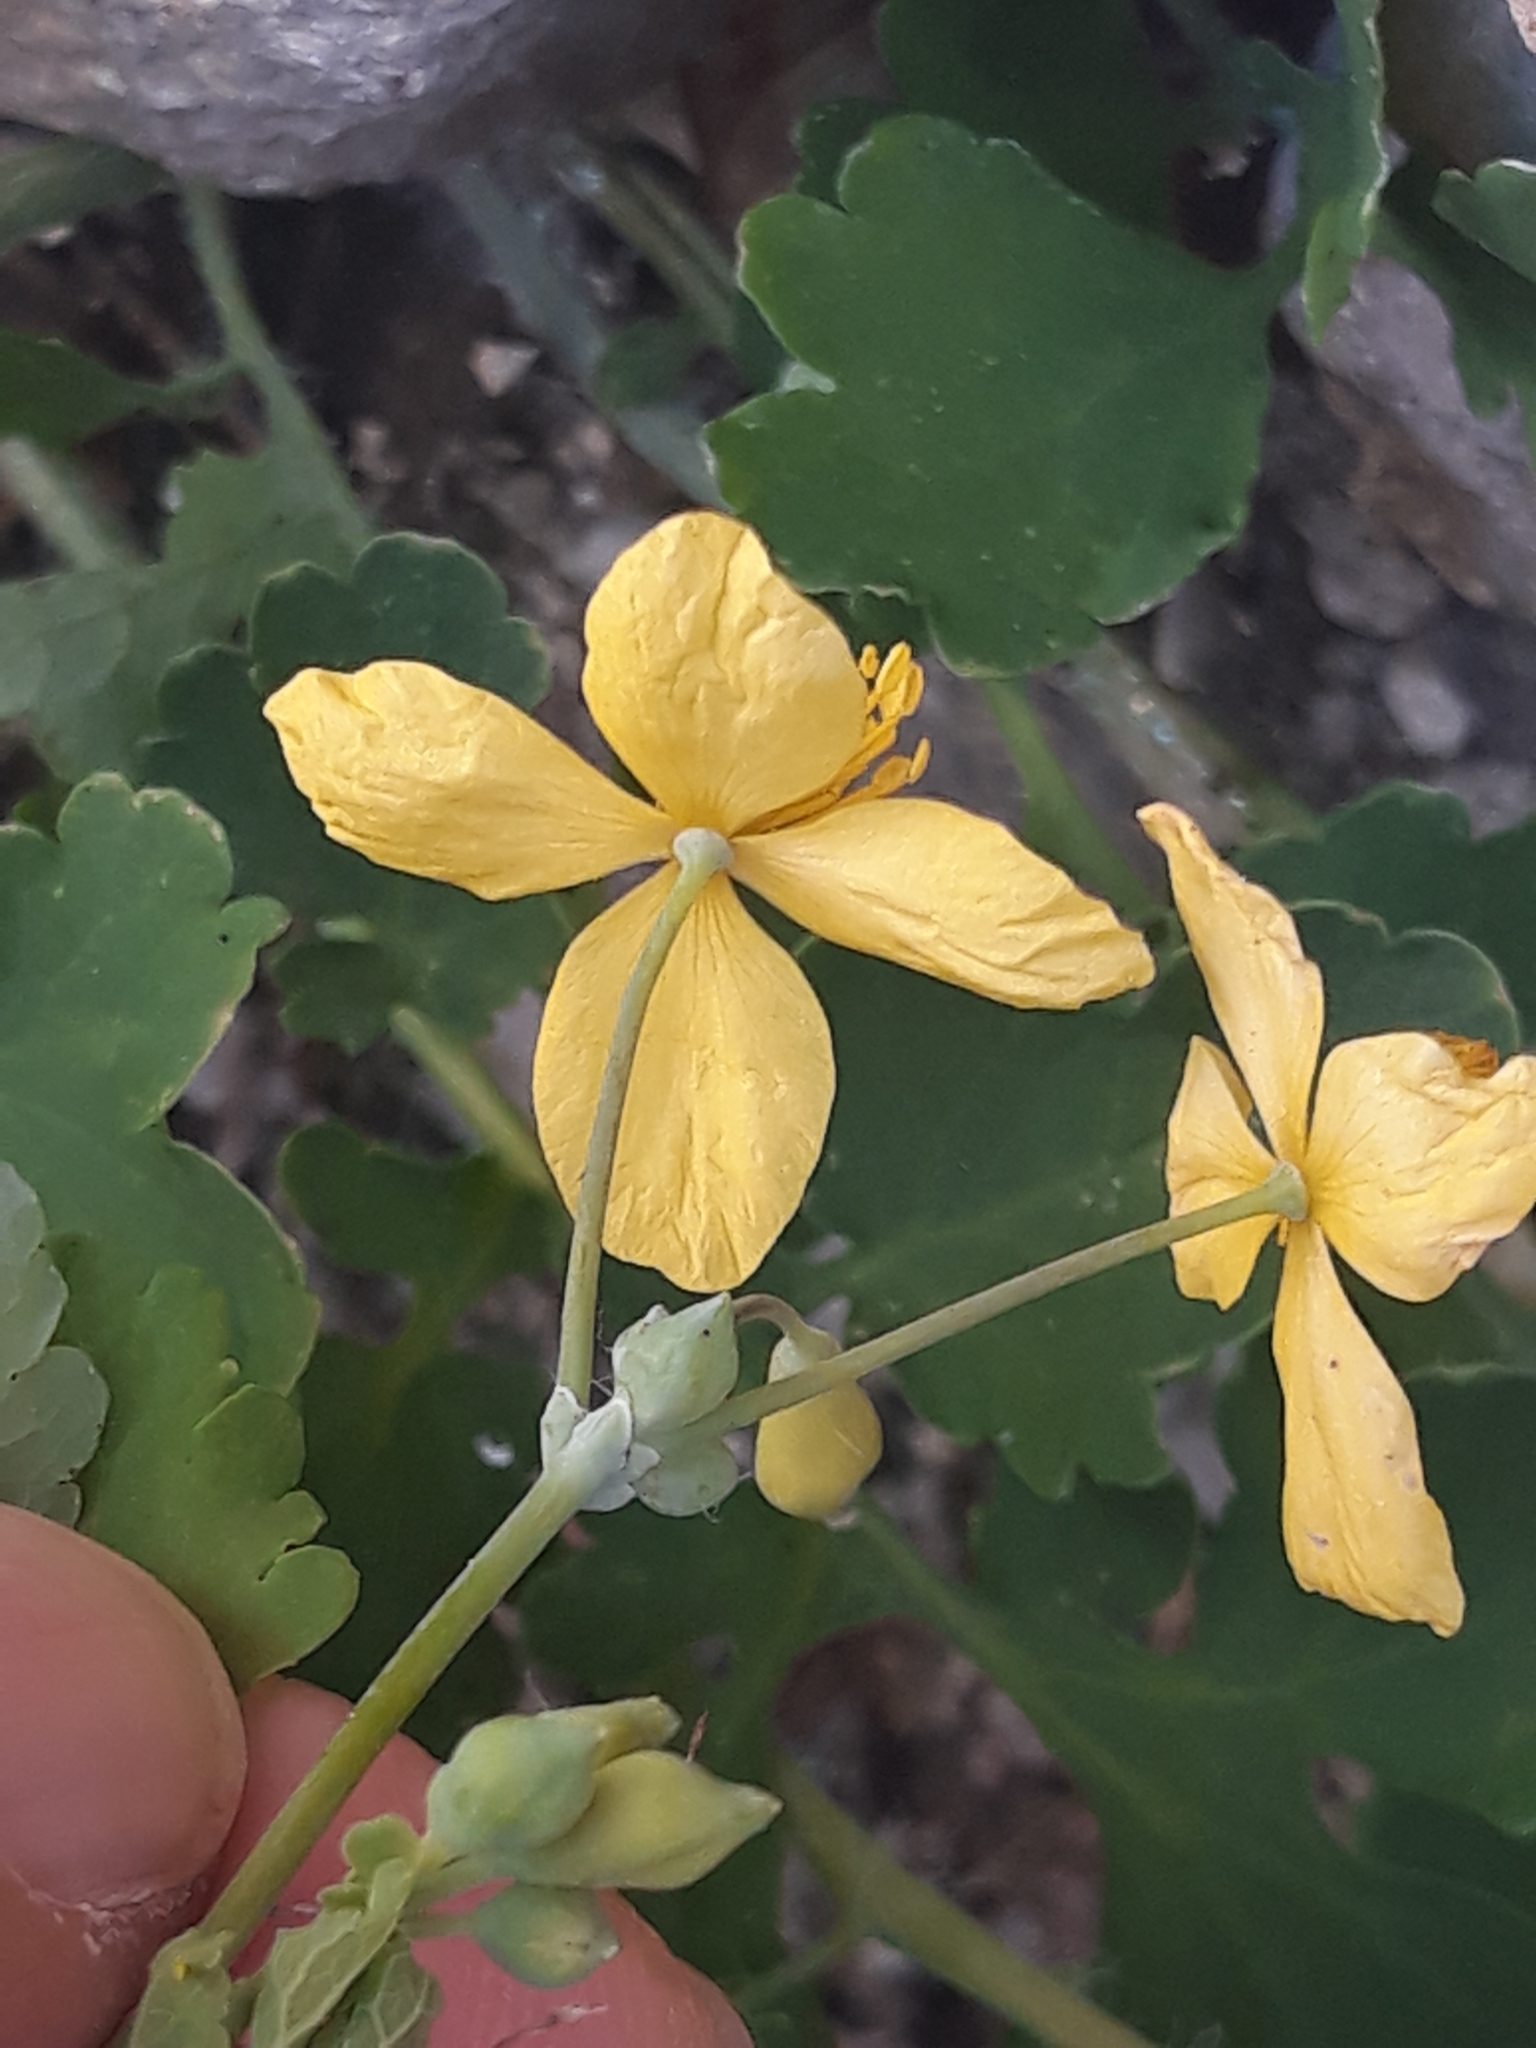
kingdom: Plantae
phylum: Tracheophyta
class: Magnoliopsida
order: Ranunculales
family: Papaveraceae
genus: Chelidonium
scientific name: Chelidonium majus
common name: Greater celandine
